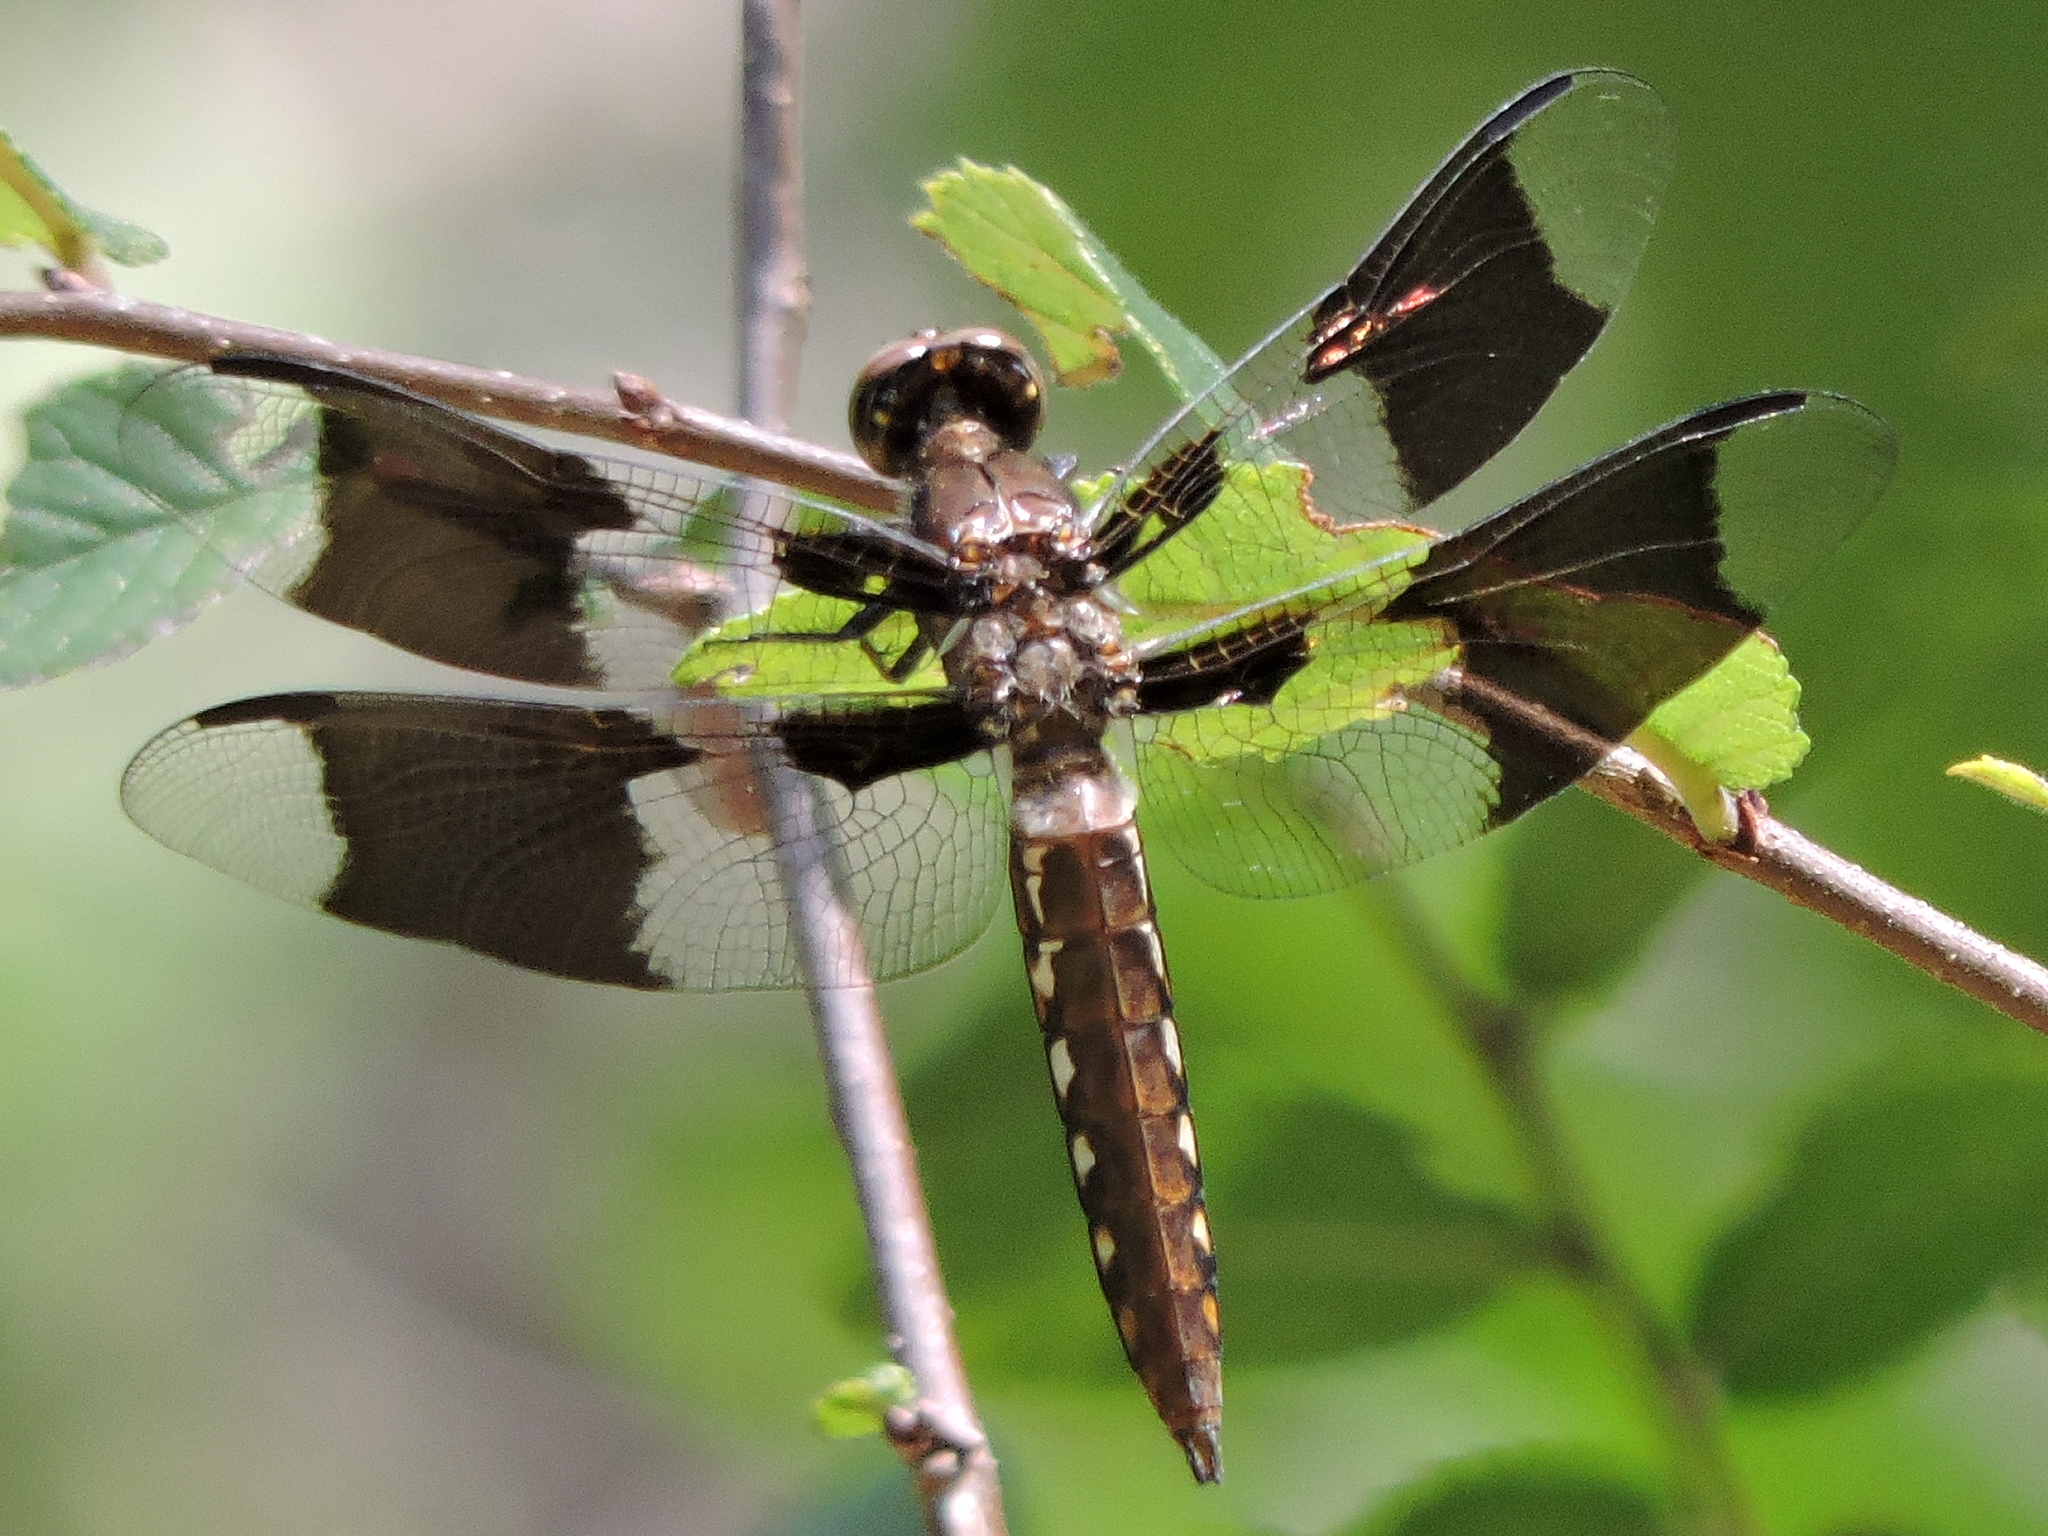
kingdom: Animalia
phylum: Arthropoda
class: Insecta
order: Odonata
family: Libellulidae
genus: Plathemis
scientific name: Plathemis lydia
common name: Common whitetail
